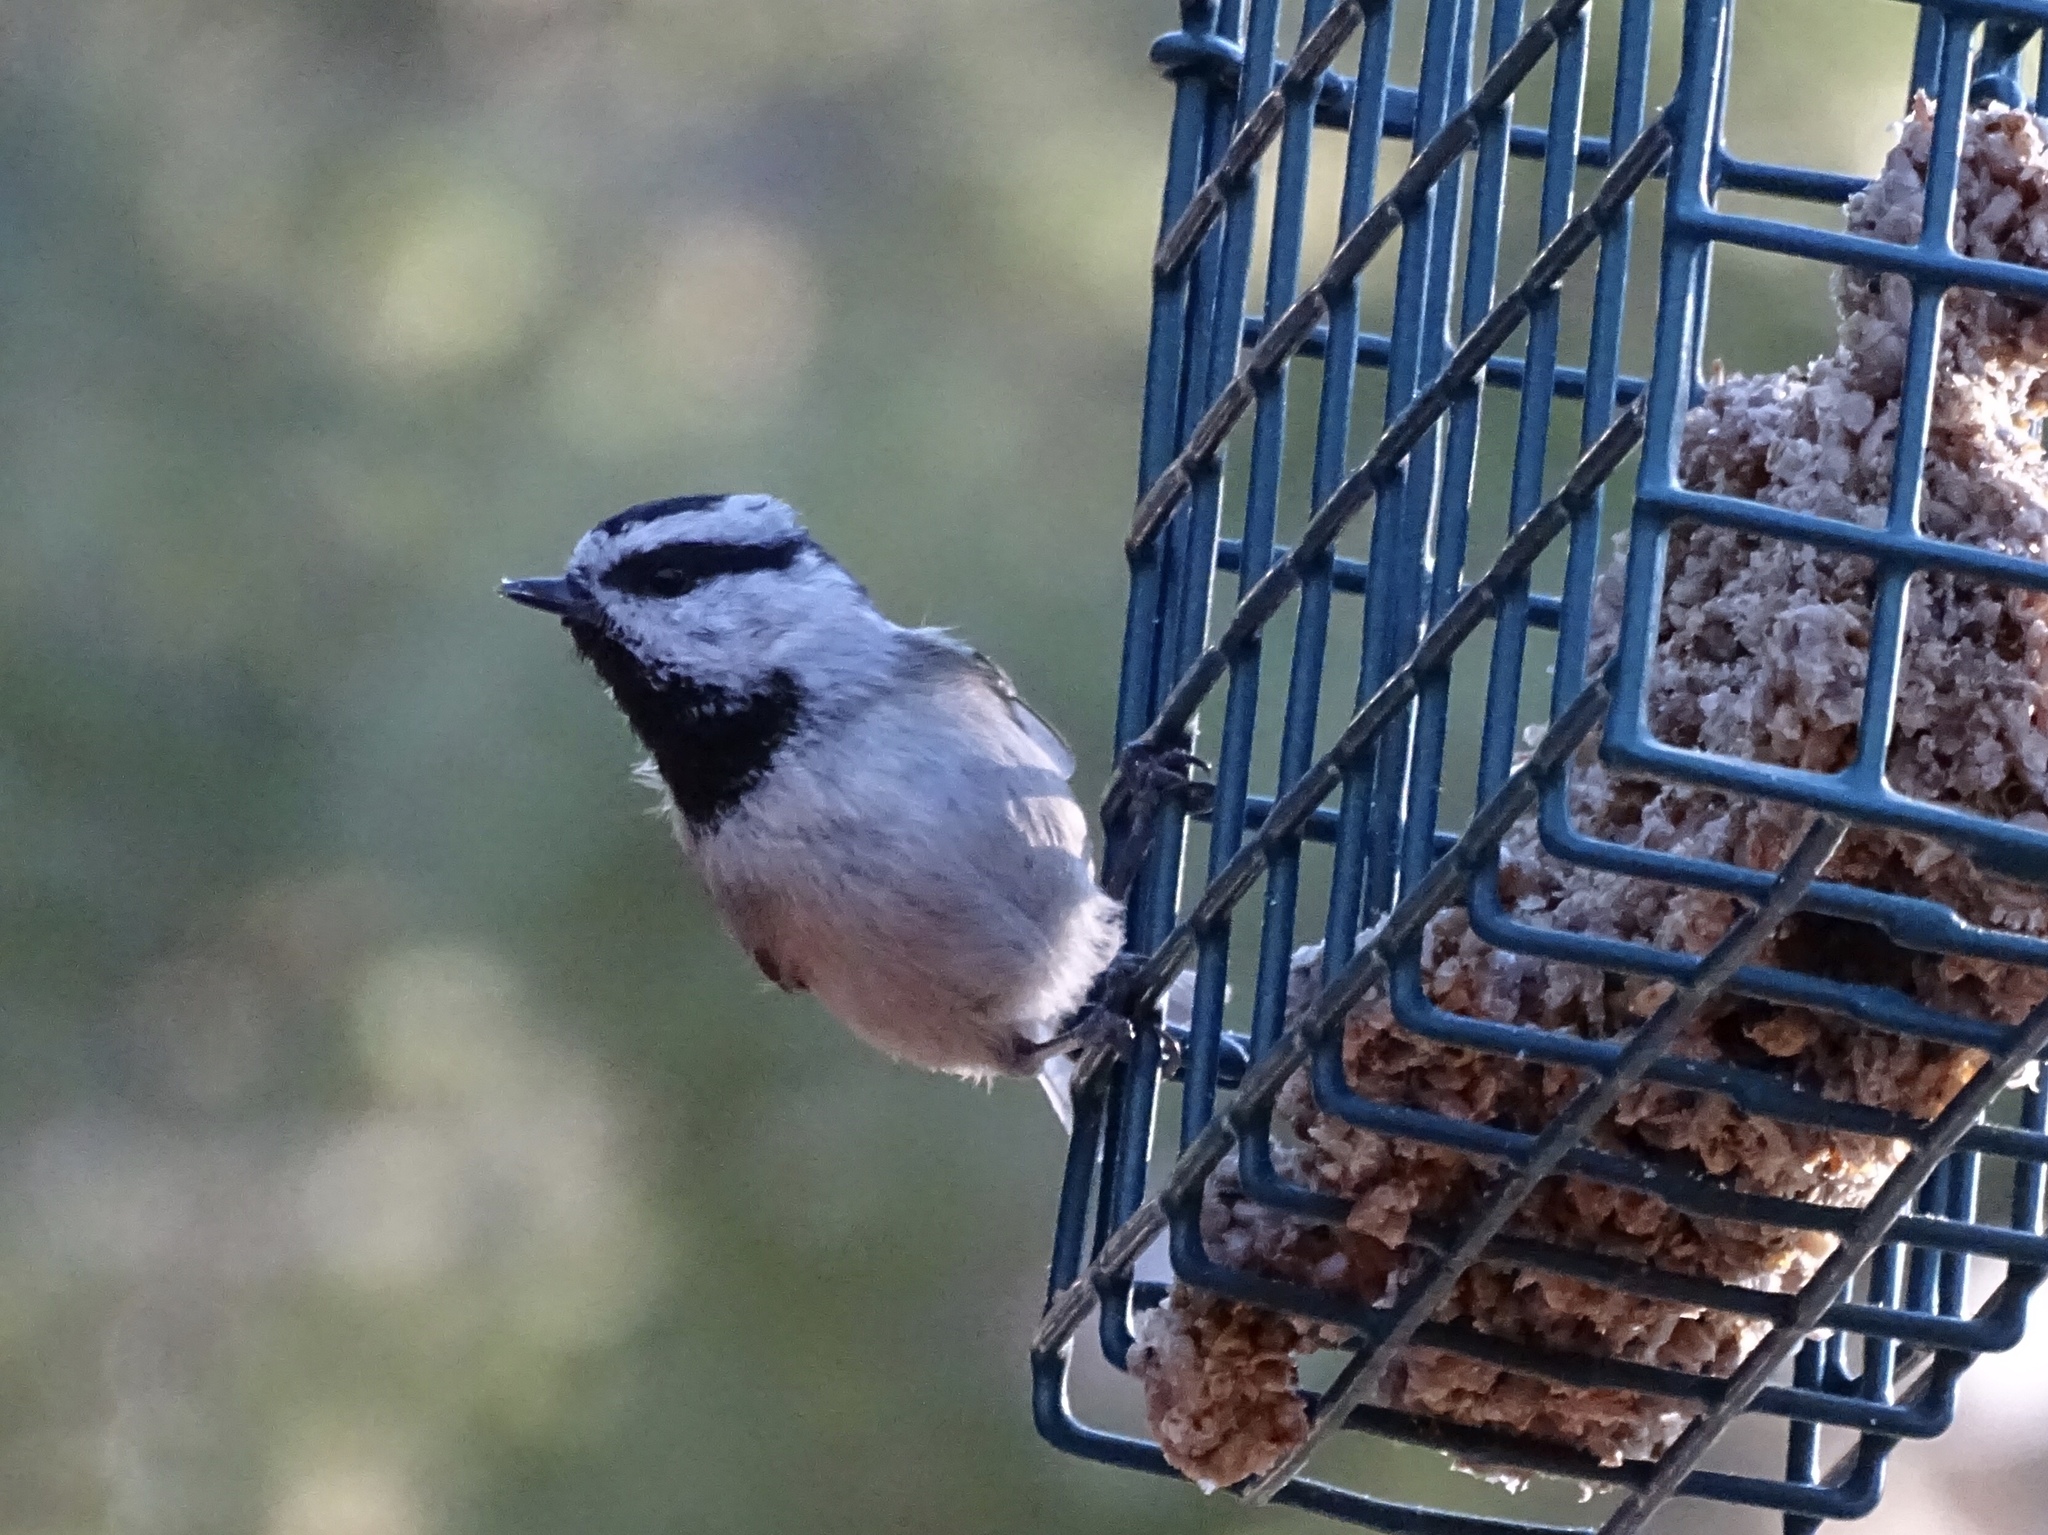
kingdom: Animalia
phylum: Chordata
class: Aves
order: Passeriformes
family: Paridae
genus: Poecile
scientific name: Poecile gambeli
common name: Mountain chickadee
